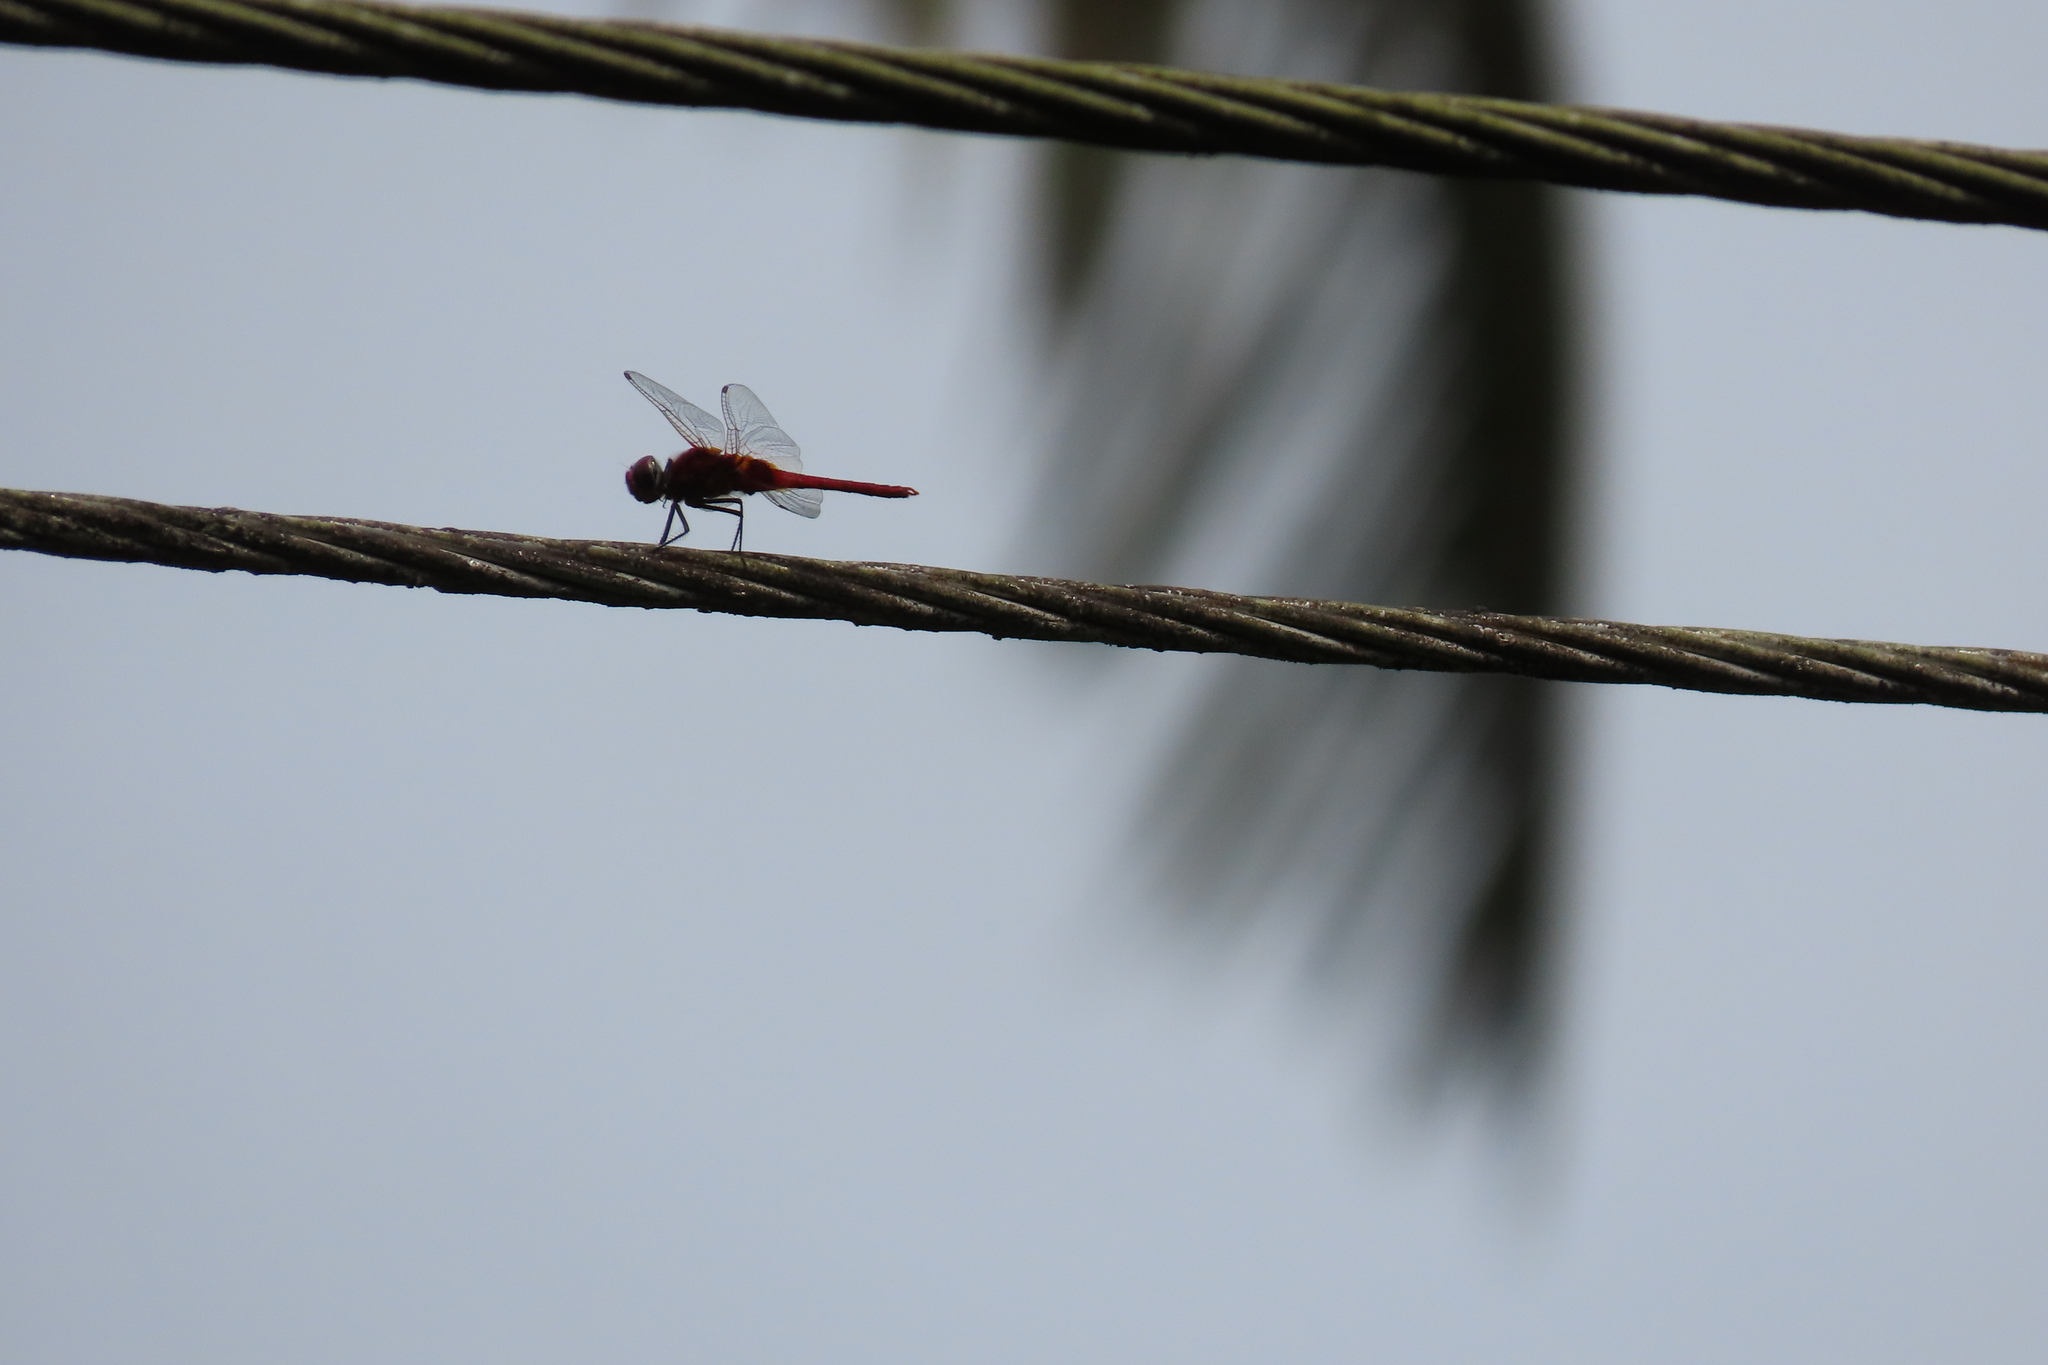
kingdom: Animalia
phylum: Arthropoda
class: Insecta
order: Odonata
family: Libellulidae
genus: Urothemis
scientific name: Urothemis signata
